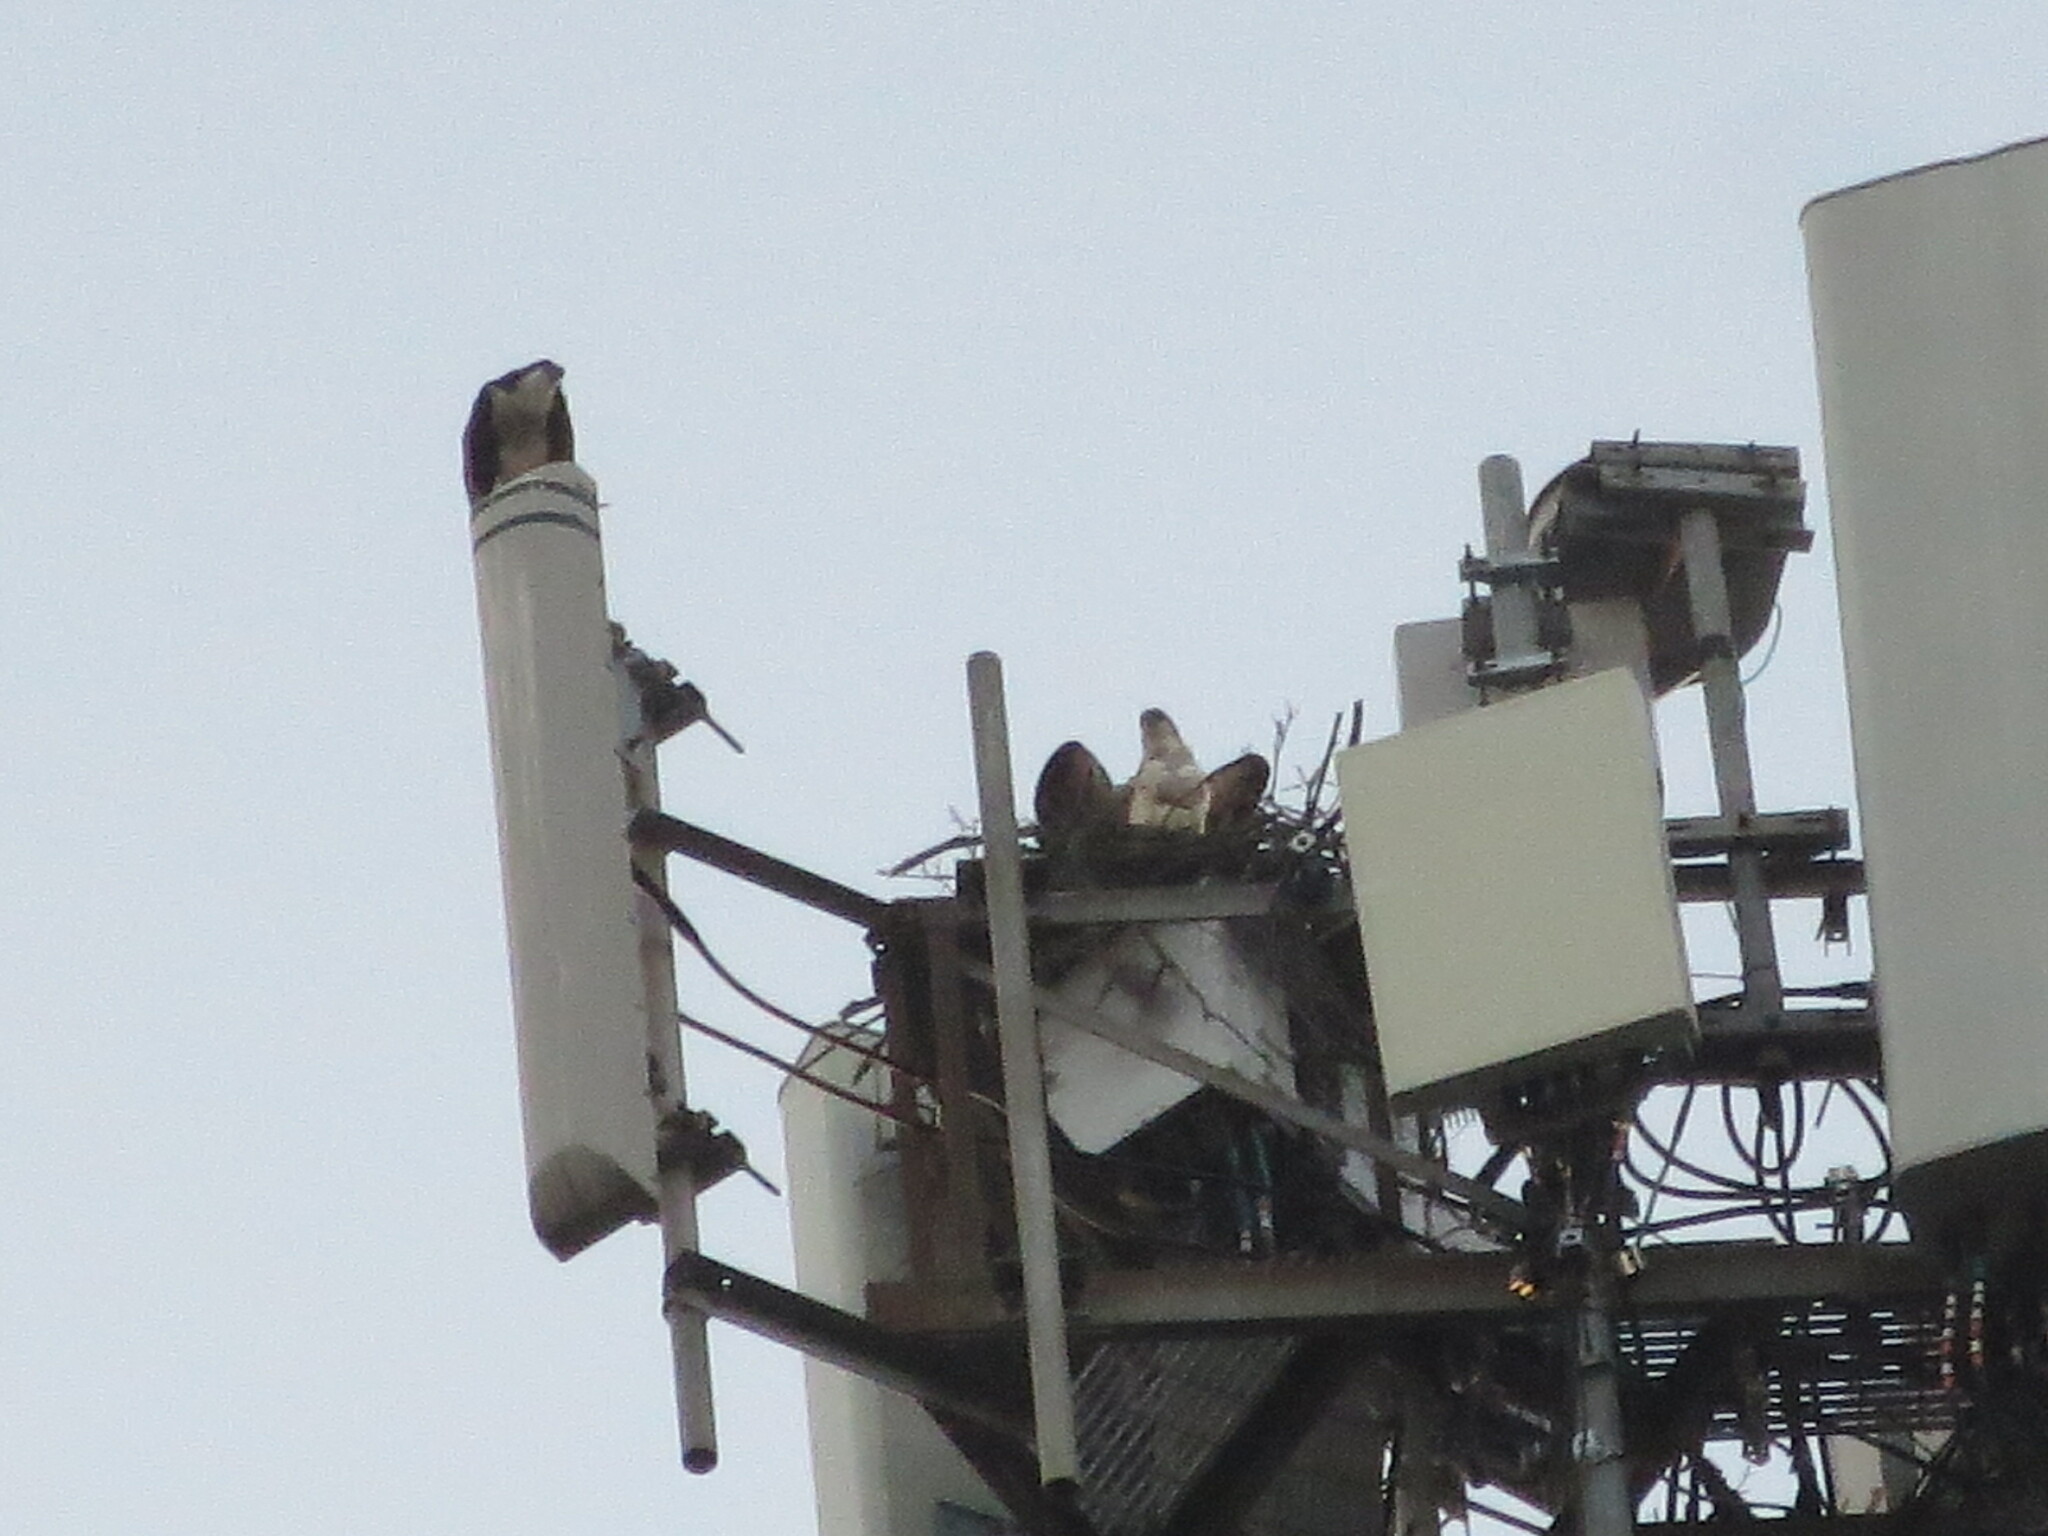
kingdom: Animalia
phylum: Chordata
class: Aves
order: Accipitriformes
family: Pandionidae
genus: Pandion
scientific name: Pandion haliaetus
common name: Osprey
